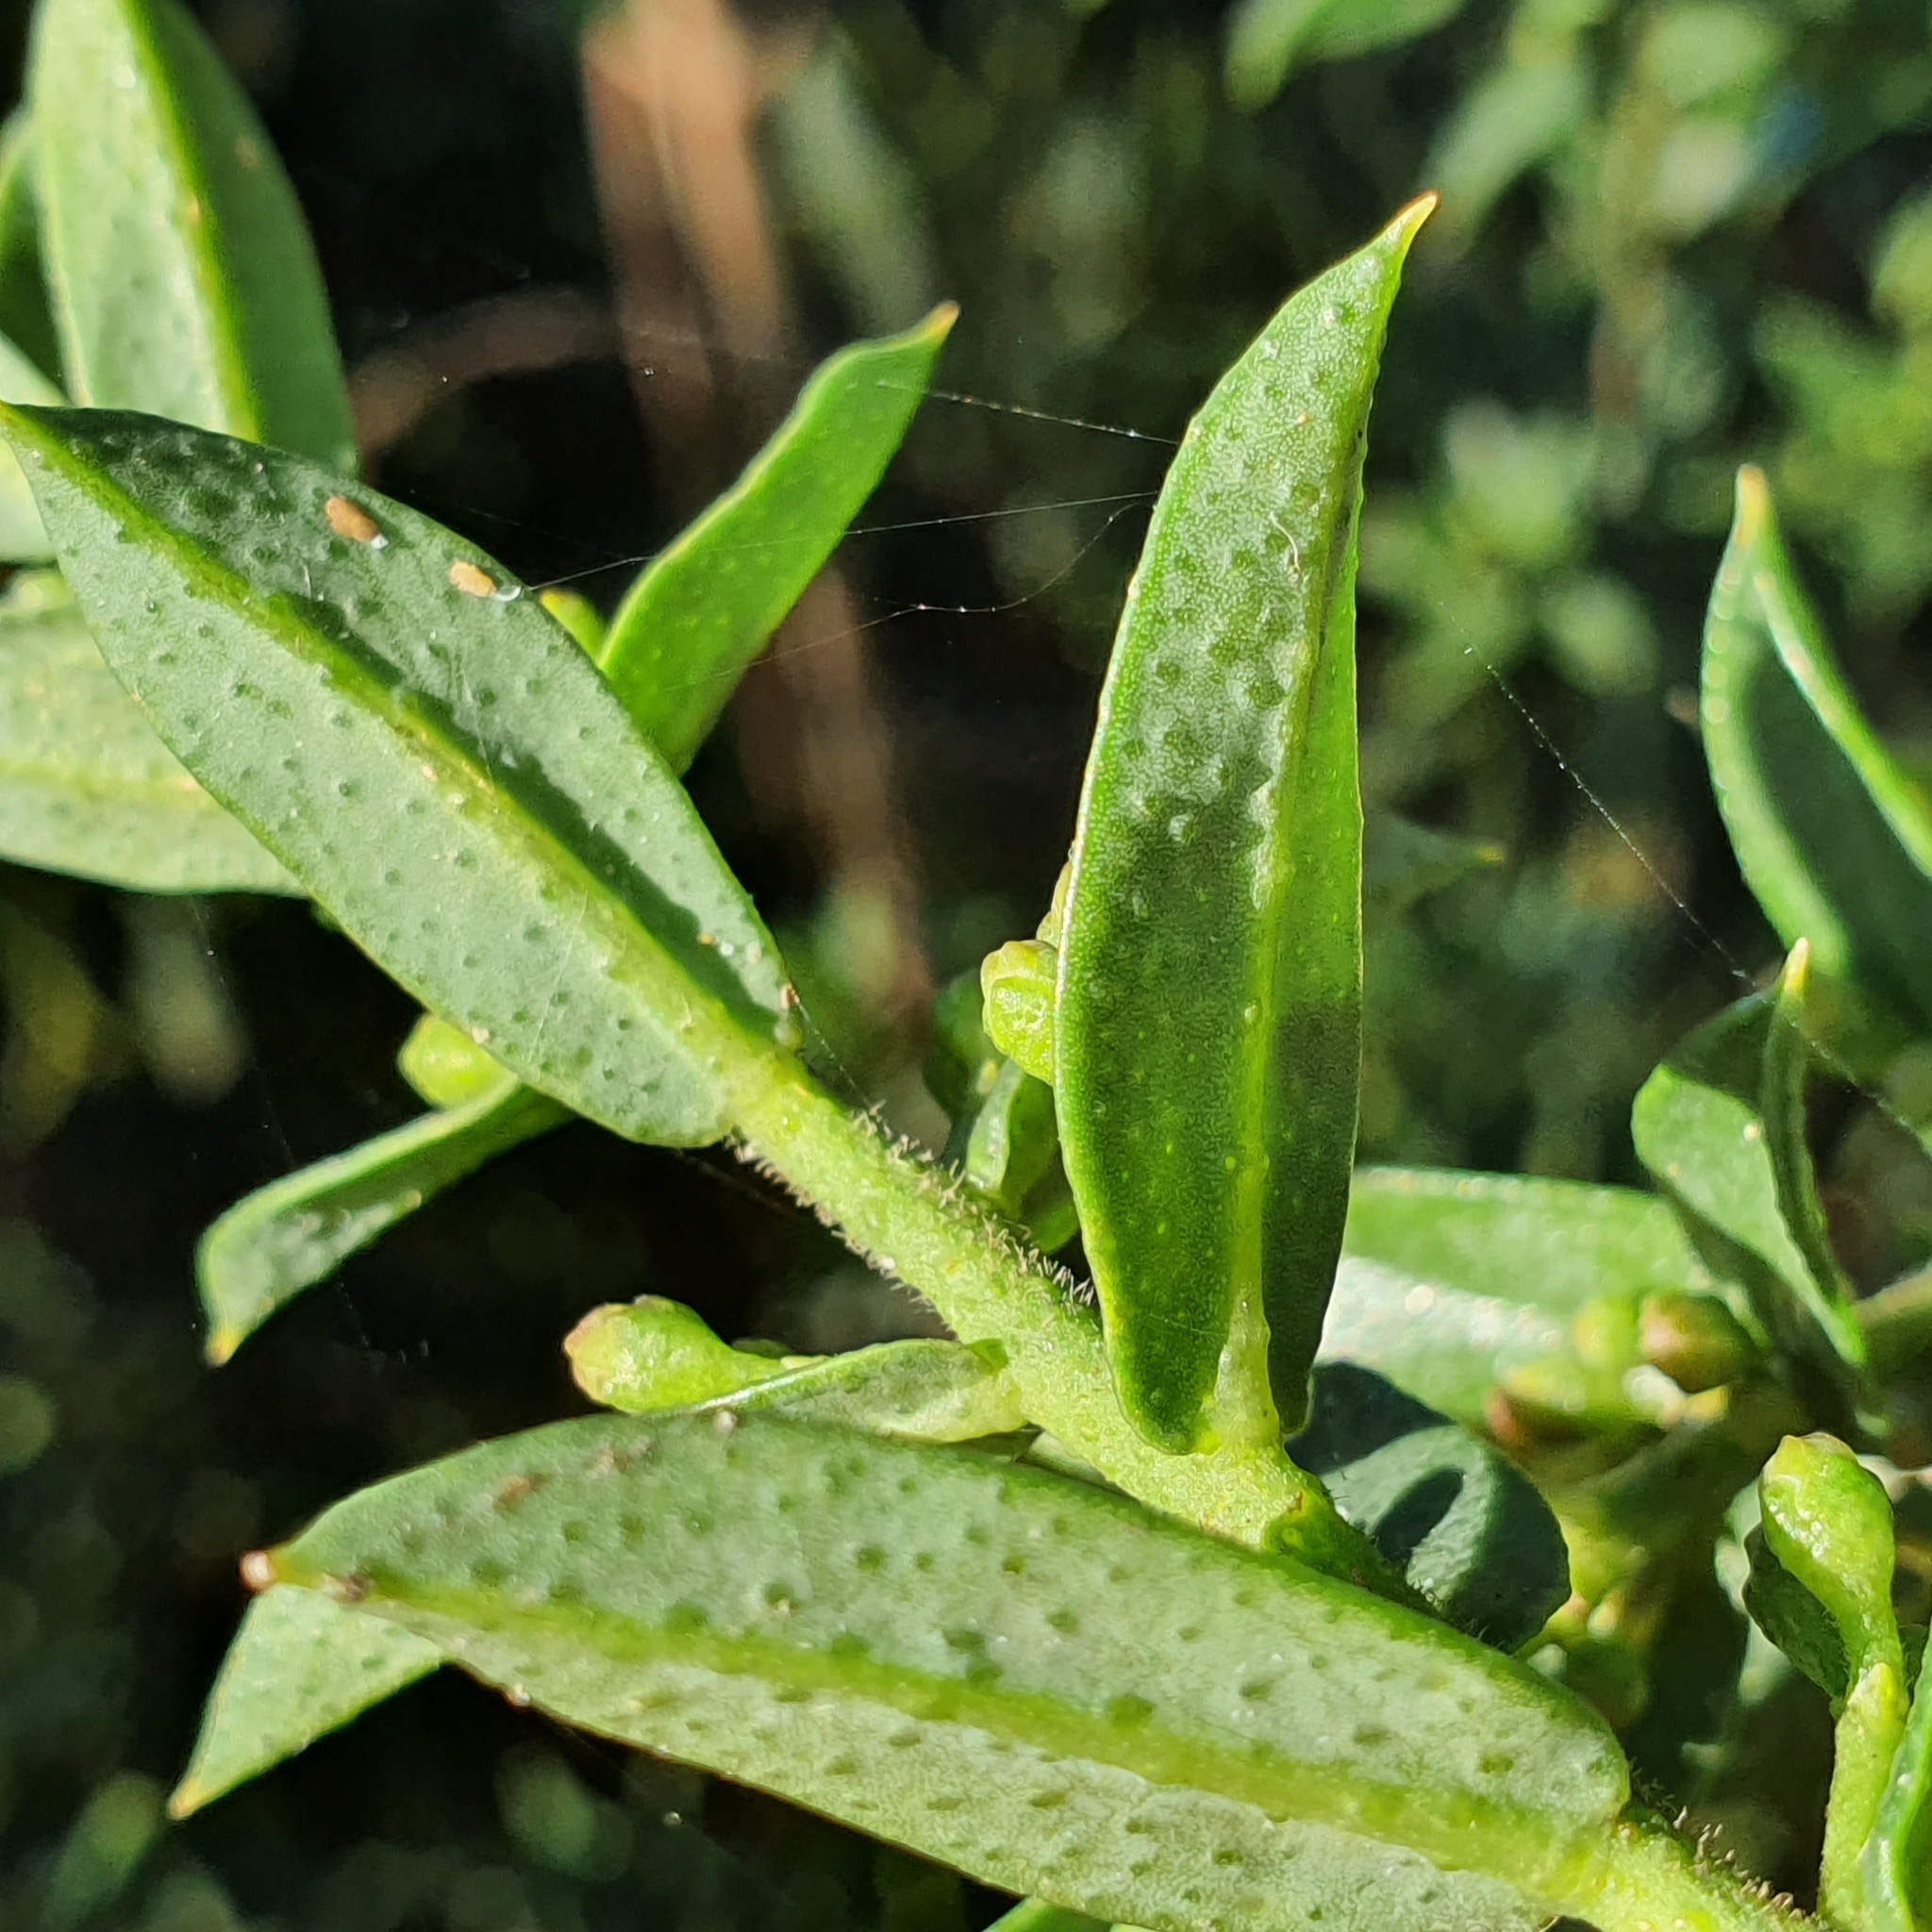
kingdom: Plantae
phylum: Tracheophyta
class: Magnoliopsida
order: Sapindales
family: Rutaceae
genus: Philotheca
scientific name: Philotheca buxifolia
